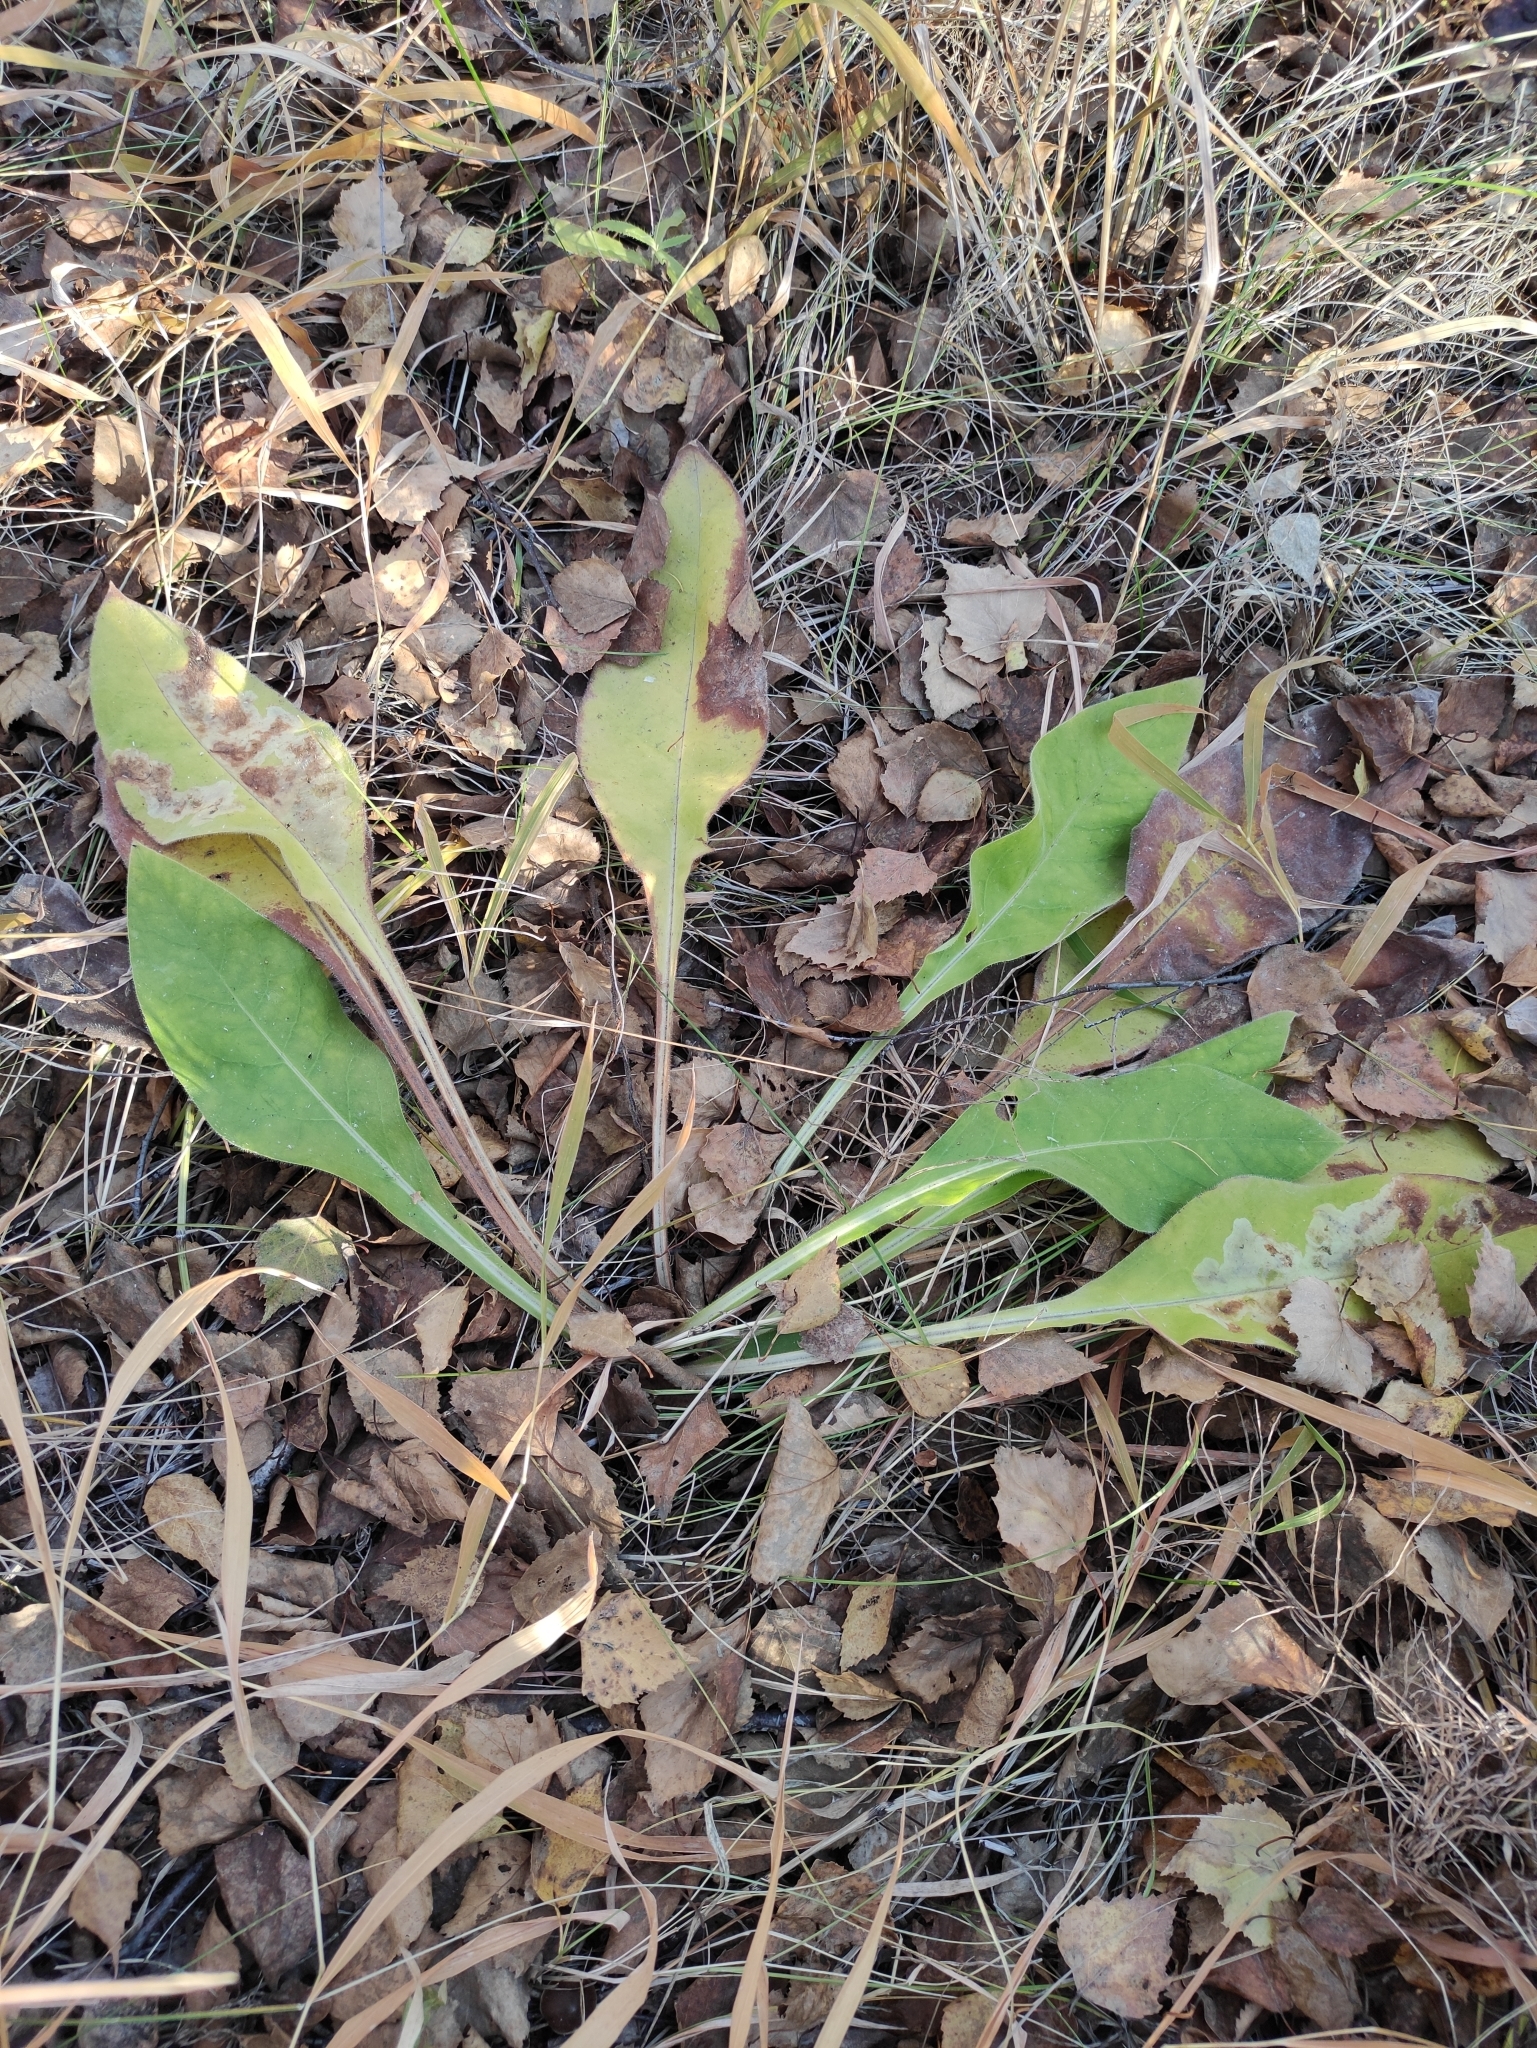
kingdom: Plantae
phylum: Tracheophyta
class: Magnoliopsida
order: Boraginales
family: Boraginaceae
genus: Pulmonaria
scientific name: Pulmonaria mollis
